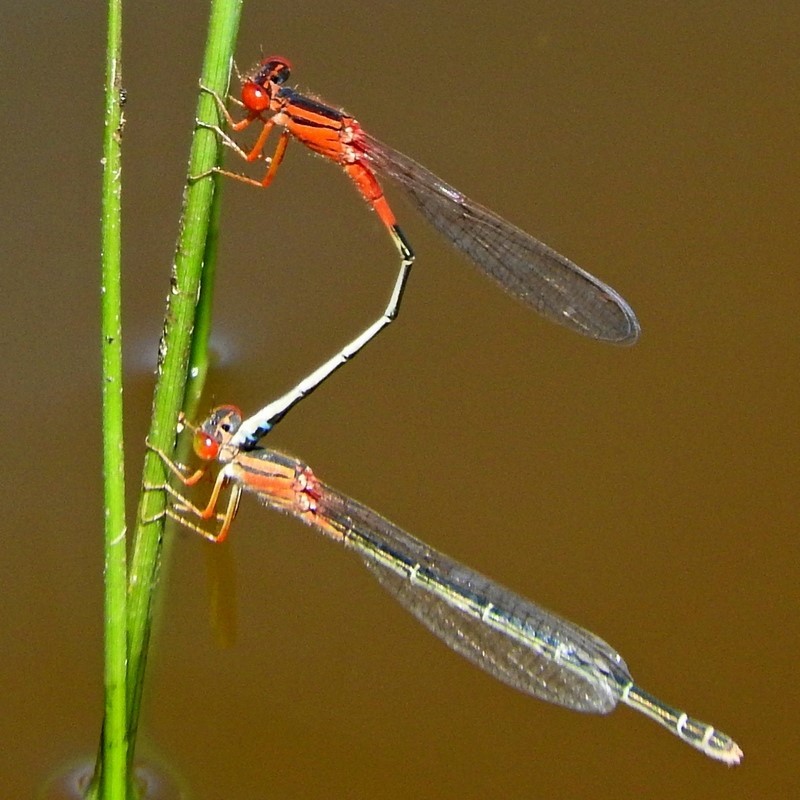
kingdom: Animalia
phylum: Arthropoda
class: Insecta
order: Odonata
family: Coenagrionidae
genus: Xanthagrion
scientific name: Xanthagrion erythroneurum
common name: Red and blue damsel
